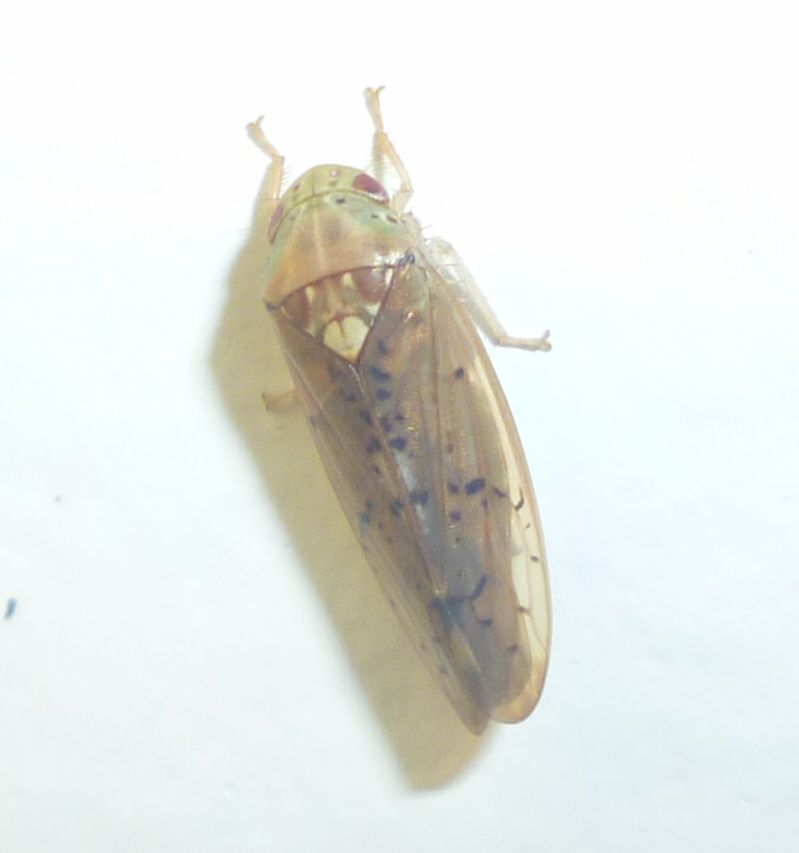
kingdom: Animalia
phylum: Arthropoda
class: Insecta
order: Hemiptera
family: Cicadellidae
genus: Ponana
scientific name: Ponana quadralaba
